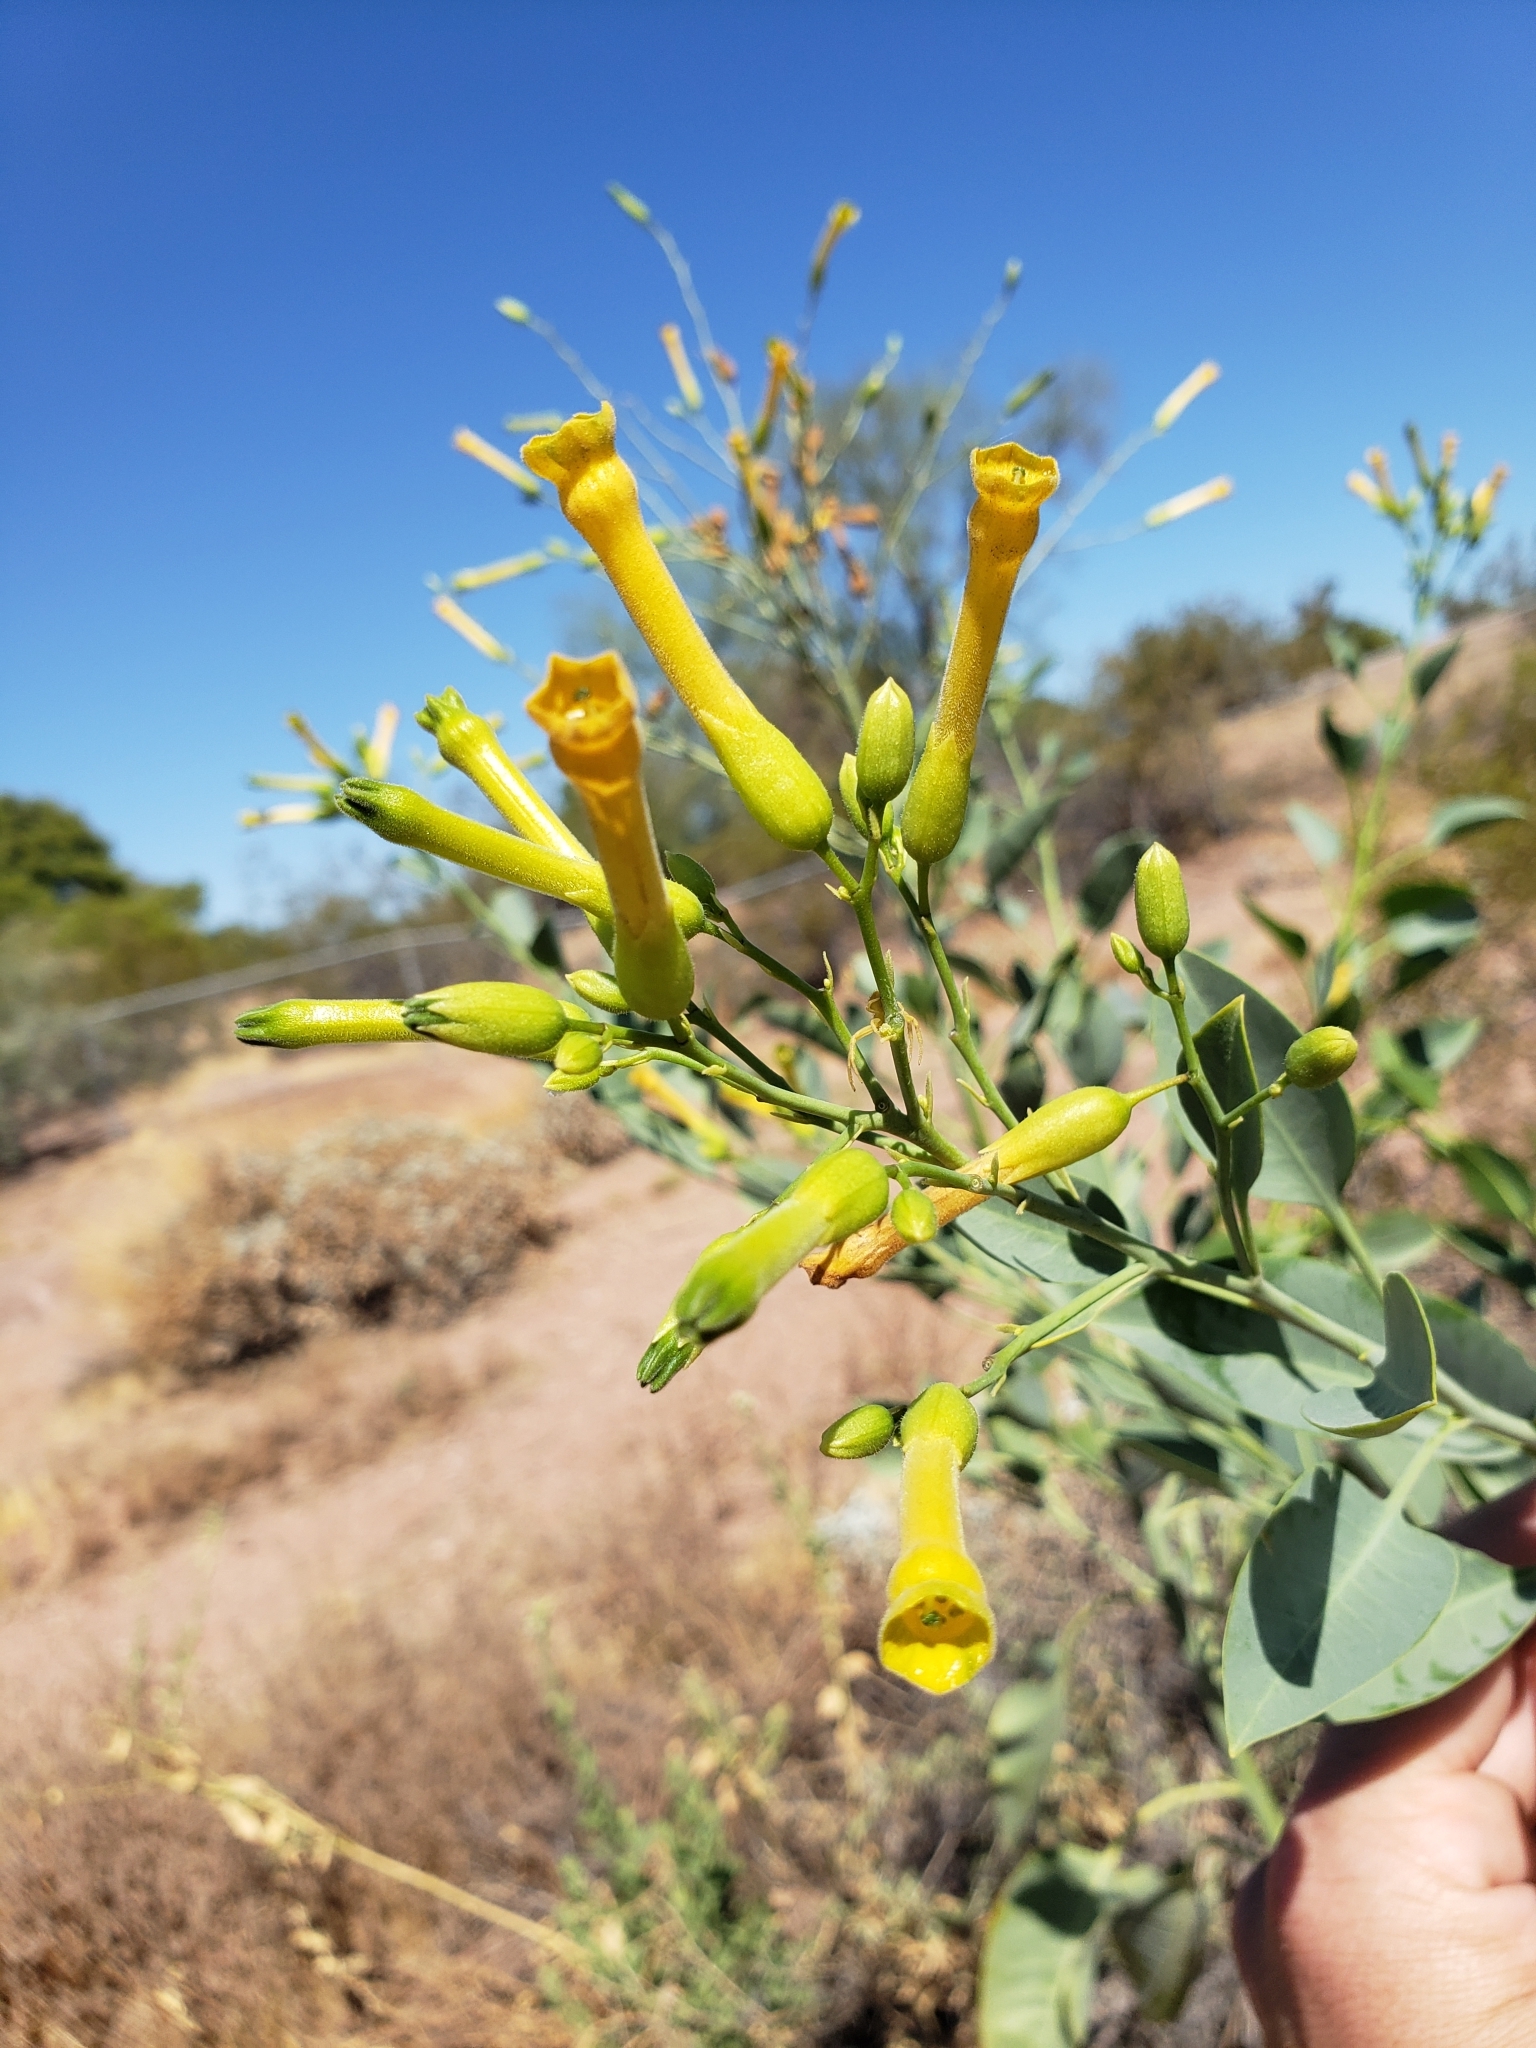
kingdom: Plantae
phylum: Tracheophyta
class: Magnoliopsida
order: Solanales
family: Solanaceae
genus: Nicotiana
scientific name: Nicotiana glauca
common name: Tree tobacco
